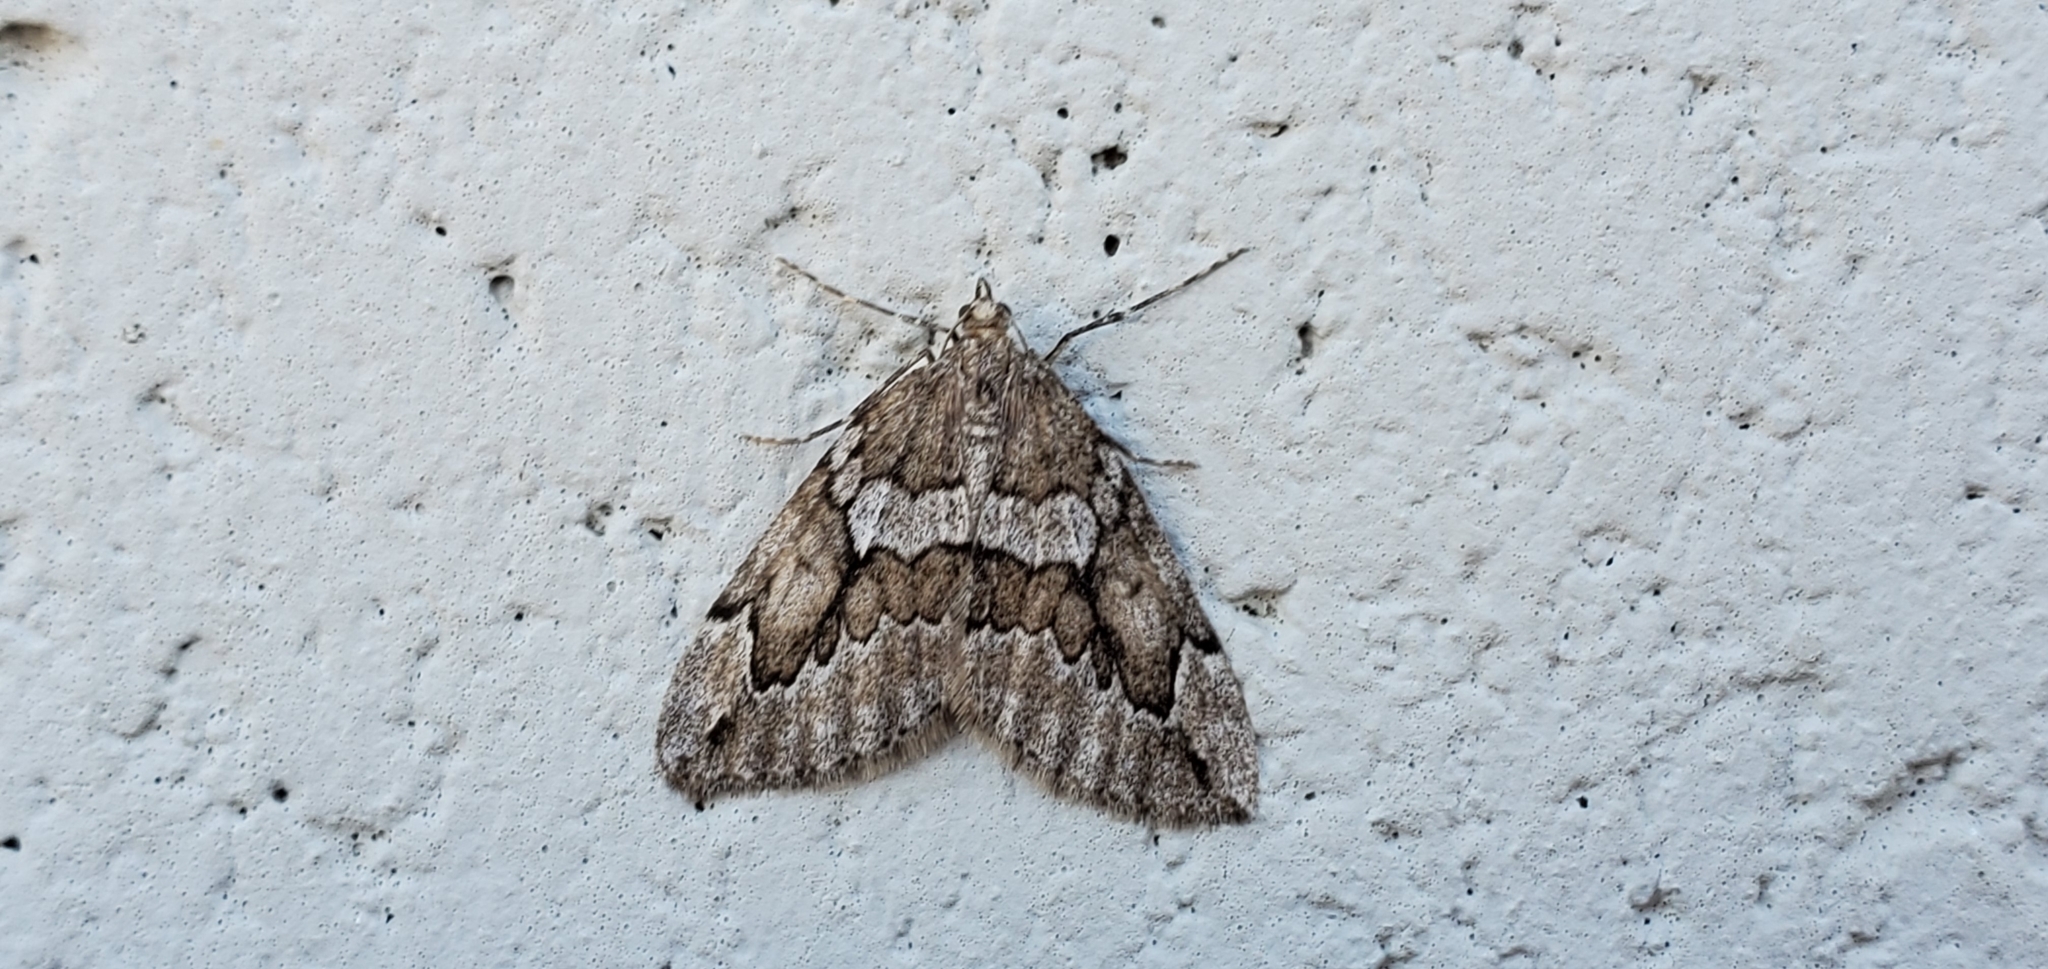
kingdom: Animalia
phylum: Arthropoda
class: Insecta
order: Lepidoptera
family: Geometridae
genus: Thera
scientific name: Thera juniperata
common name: Juniper carpet
